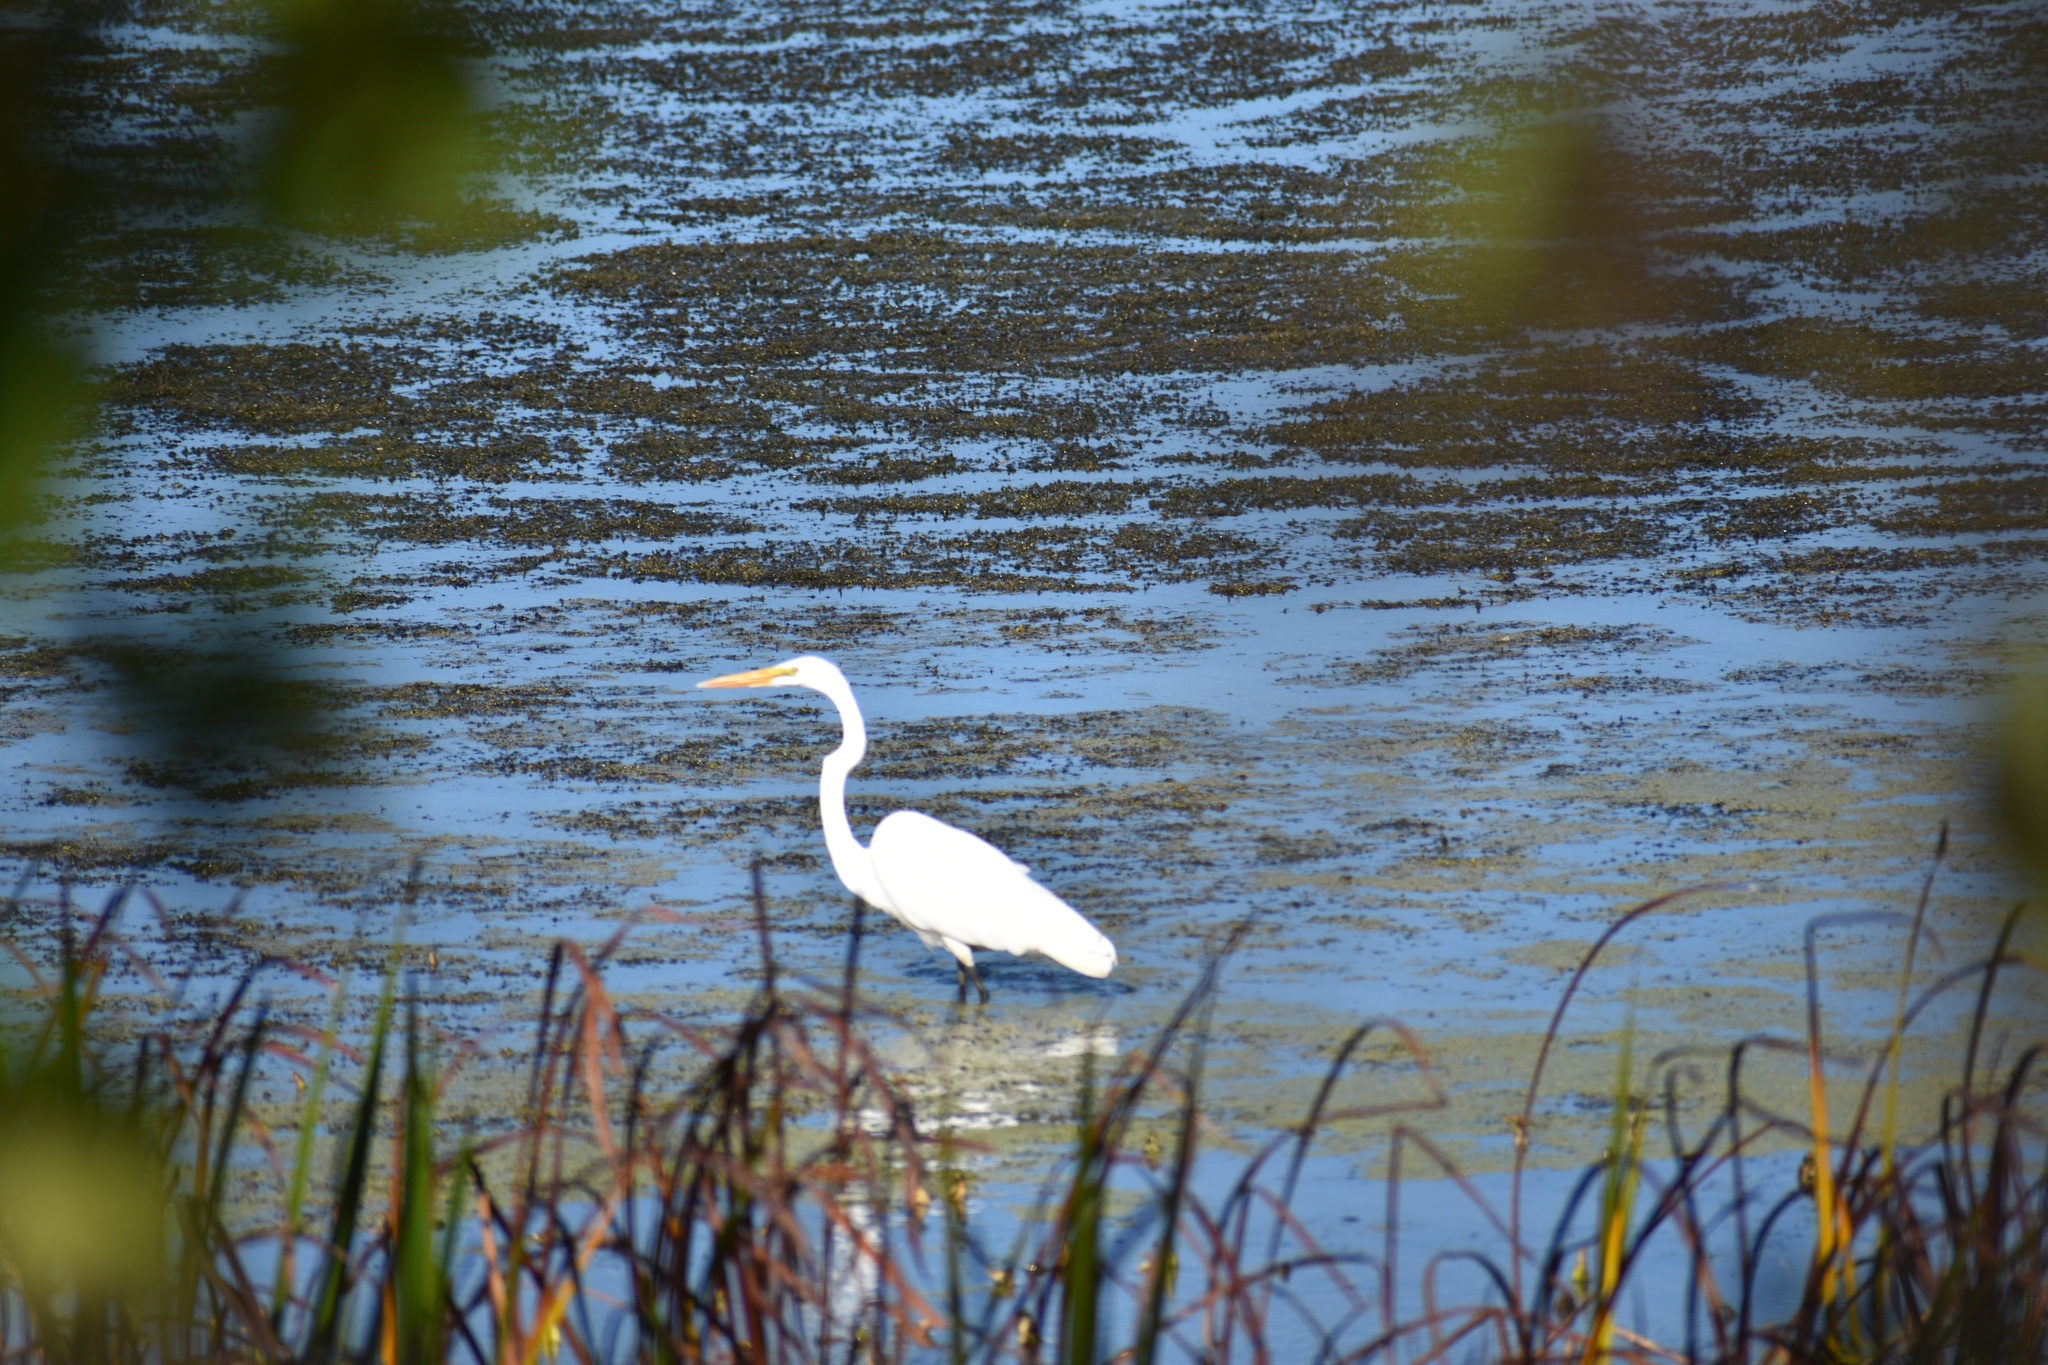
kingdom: Animalia
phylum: Chordata
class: Aves
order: Pelecaniformes
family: Ardeidae
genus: Ardea
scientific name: Ardea alba
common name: Great egret
